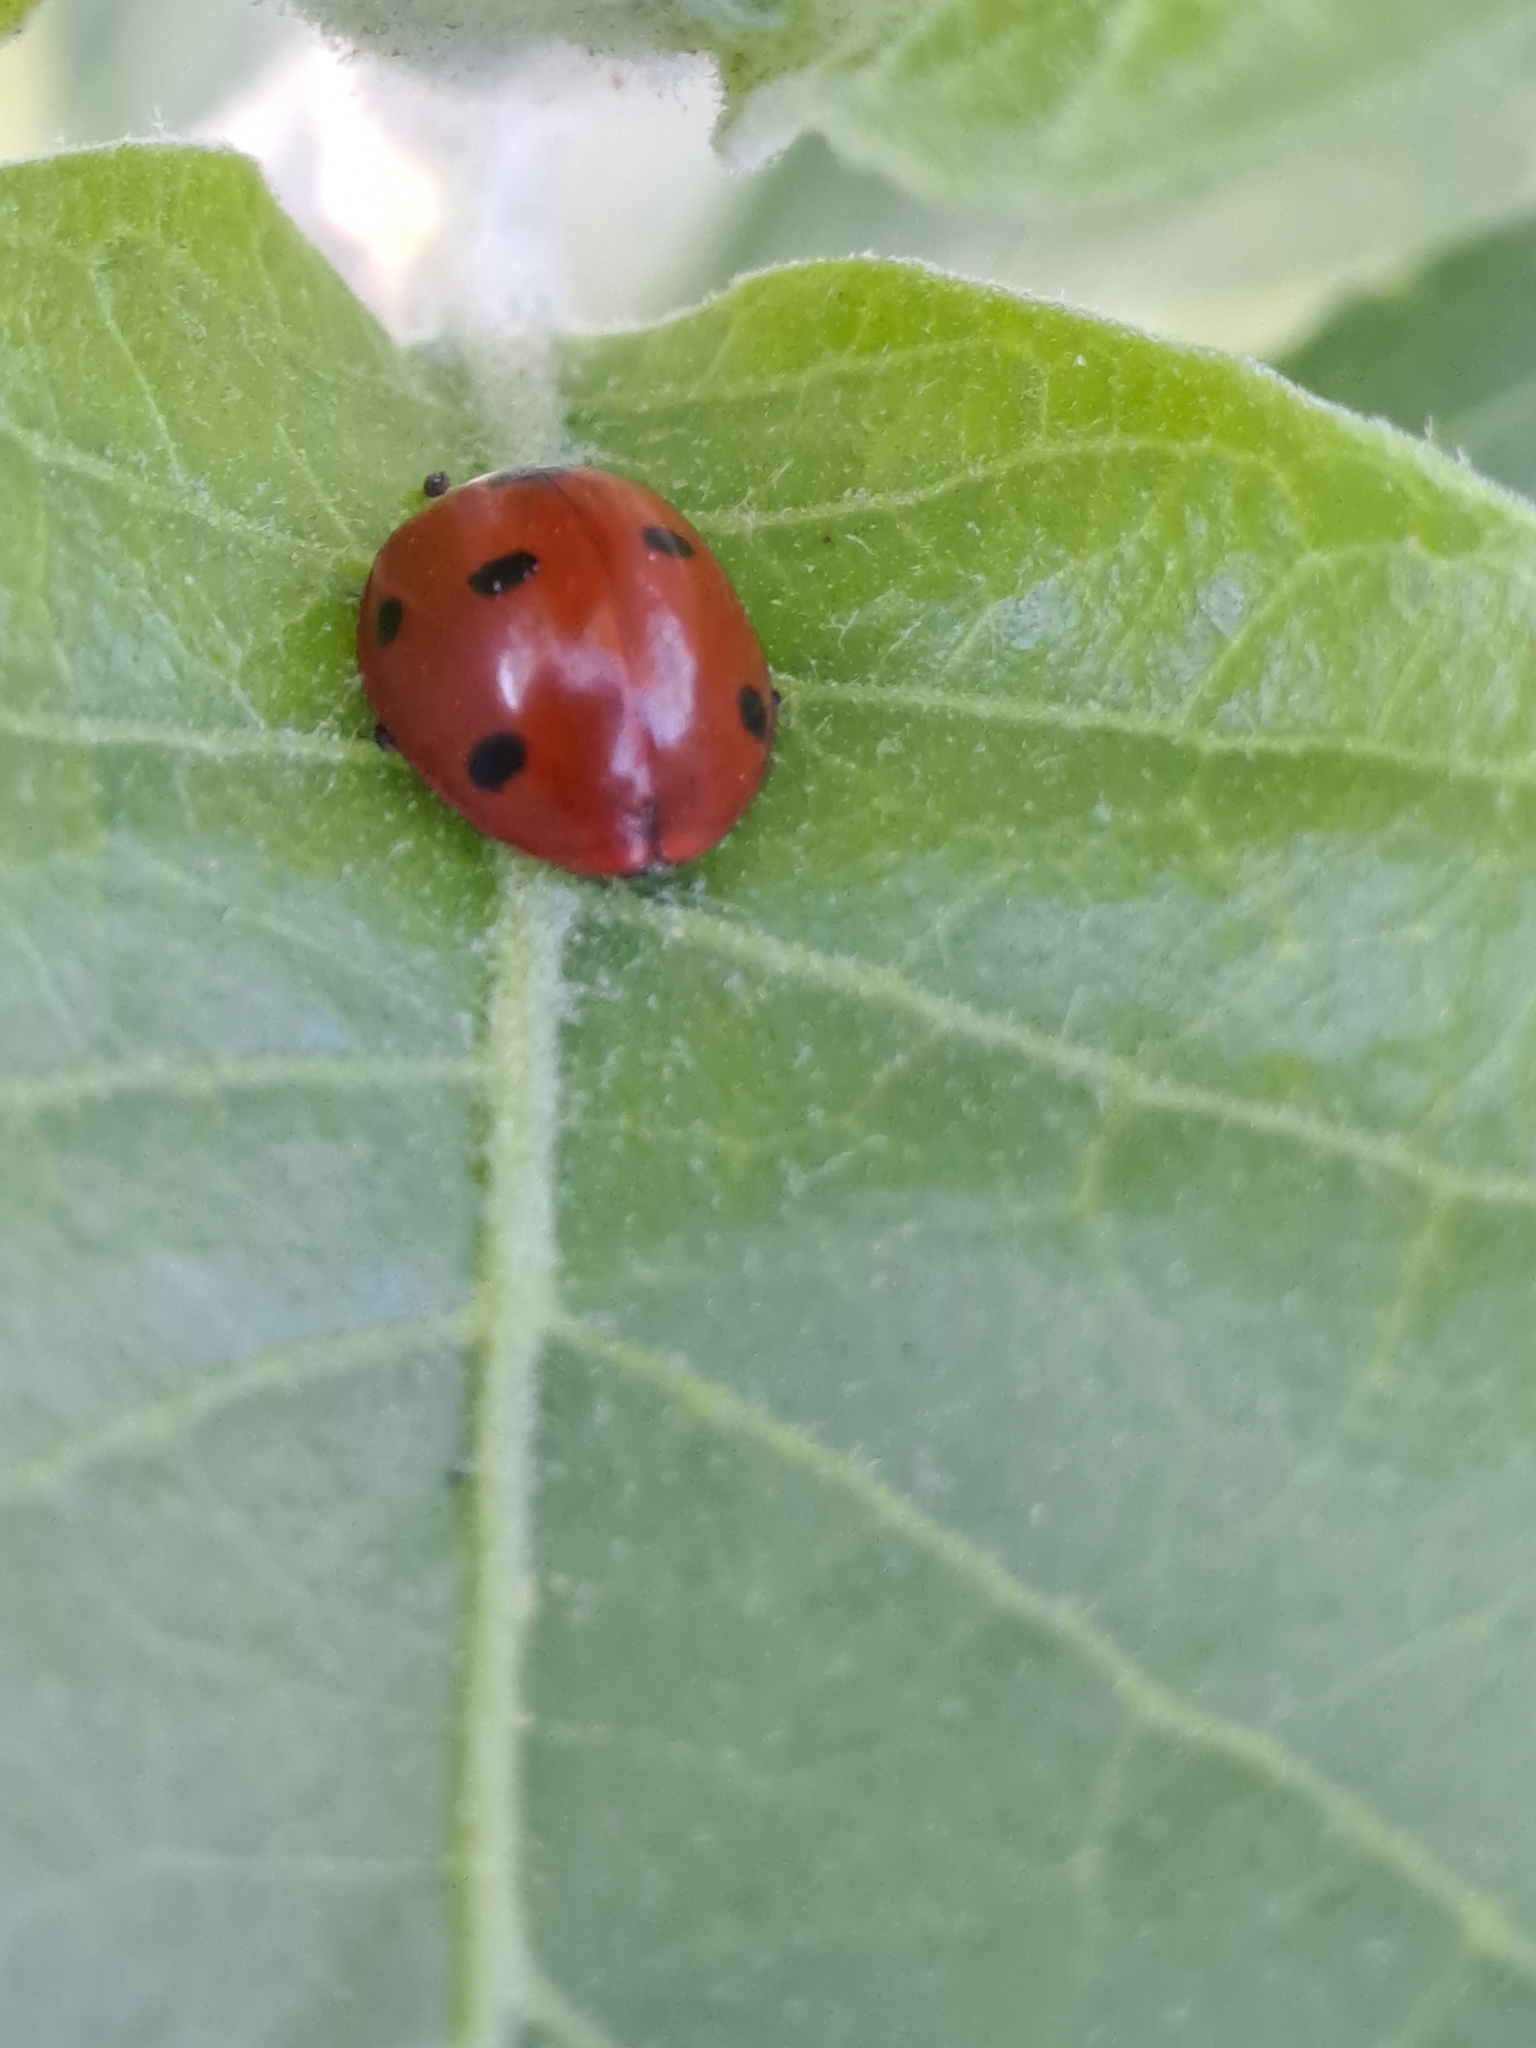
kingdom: Animalia
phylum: Arthropoda
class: Insecta
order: Coleoptera
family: Coccinellidae
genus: Coccinella
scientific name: Coccinella septempunctata
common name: Sevenspotted lady beetle
